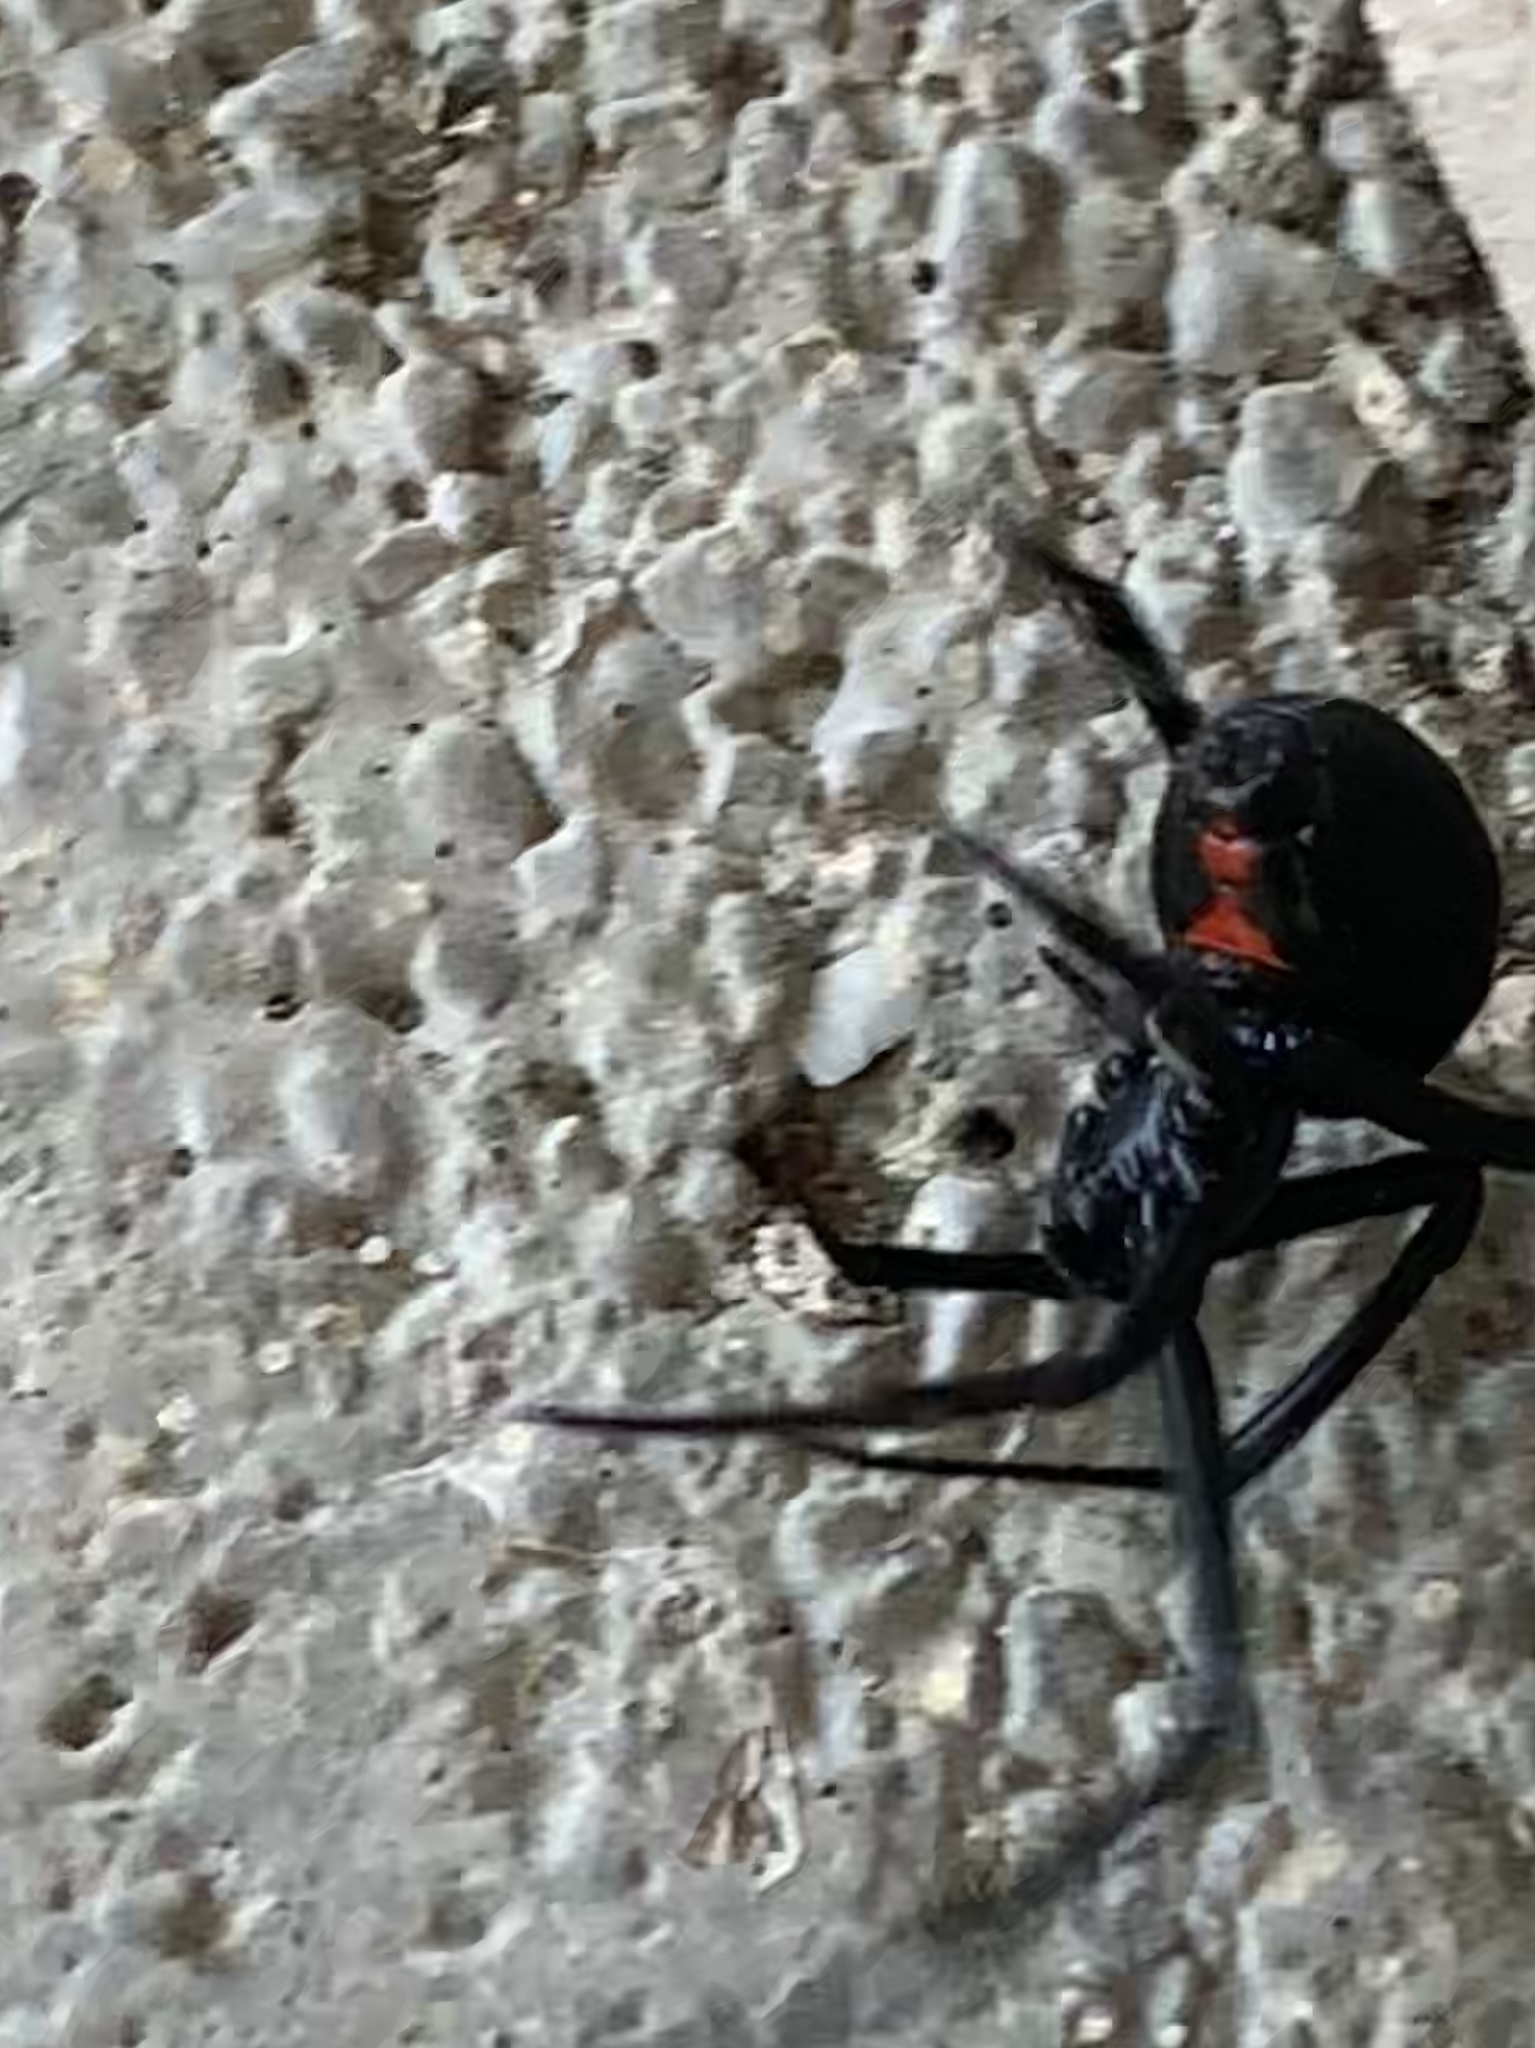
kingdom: Animalia
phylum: Arthropoda
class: Arachnida
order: Araneae
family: Theridiidae
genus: Latrodectus
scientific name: Latrodectus hesperus
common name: Western black widow
